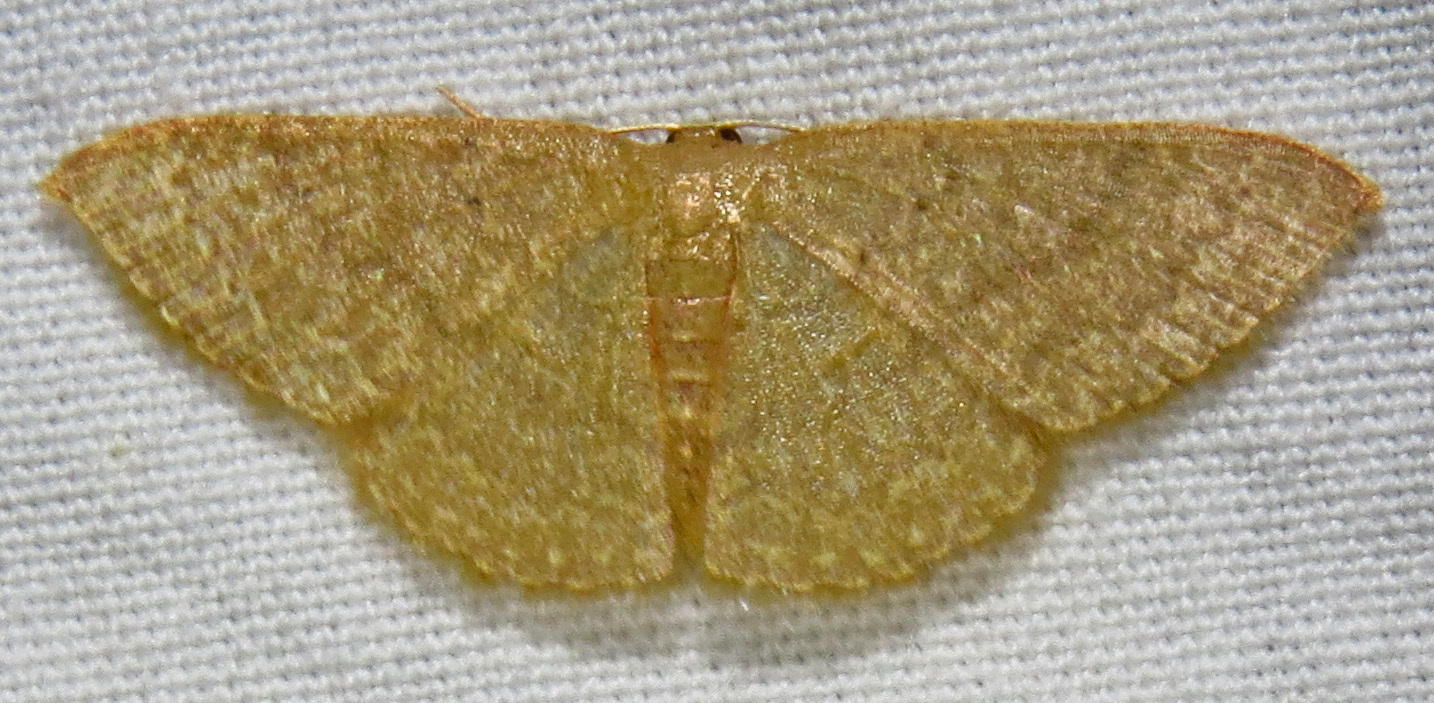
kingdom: Animalia
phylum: Arthropoda
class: Insecta
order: Lepidoptera
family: Geometridae
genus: Pleuroprucha
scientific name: Pleuroprucha insulsaria
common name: Common tan wave
